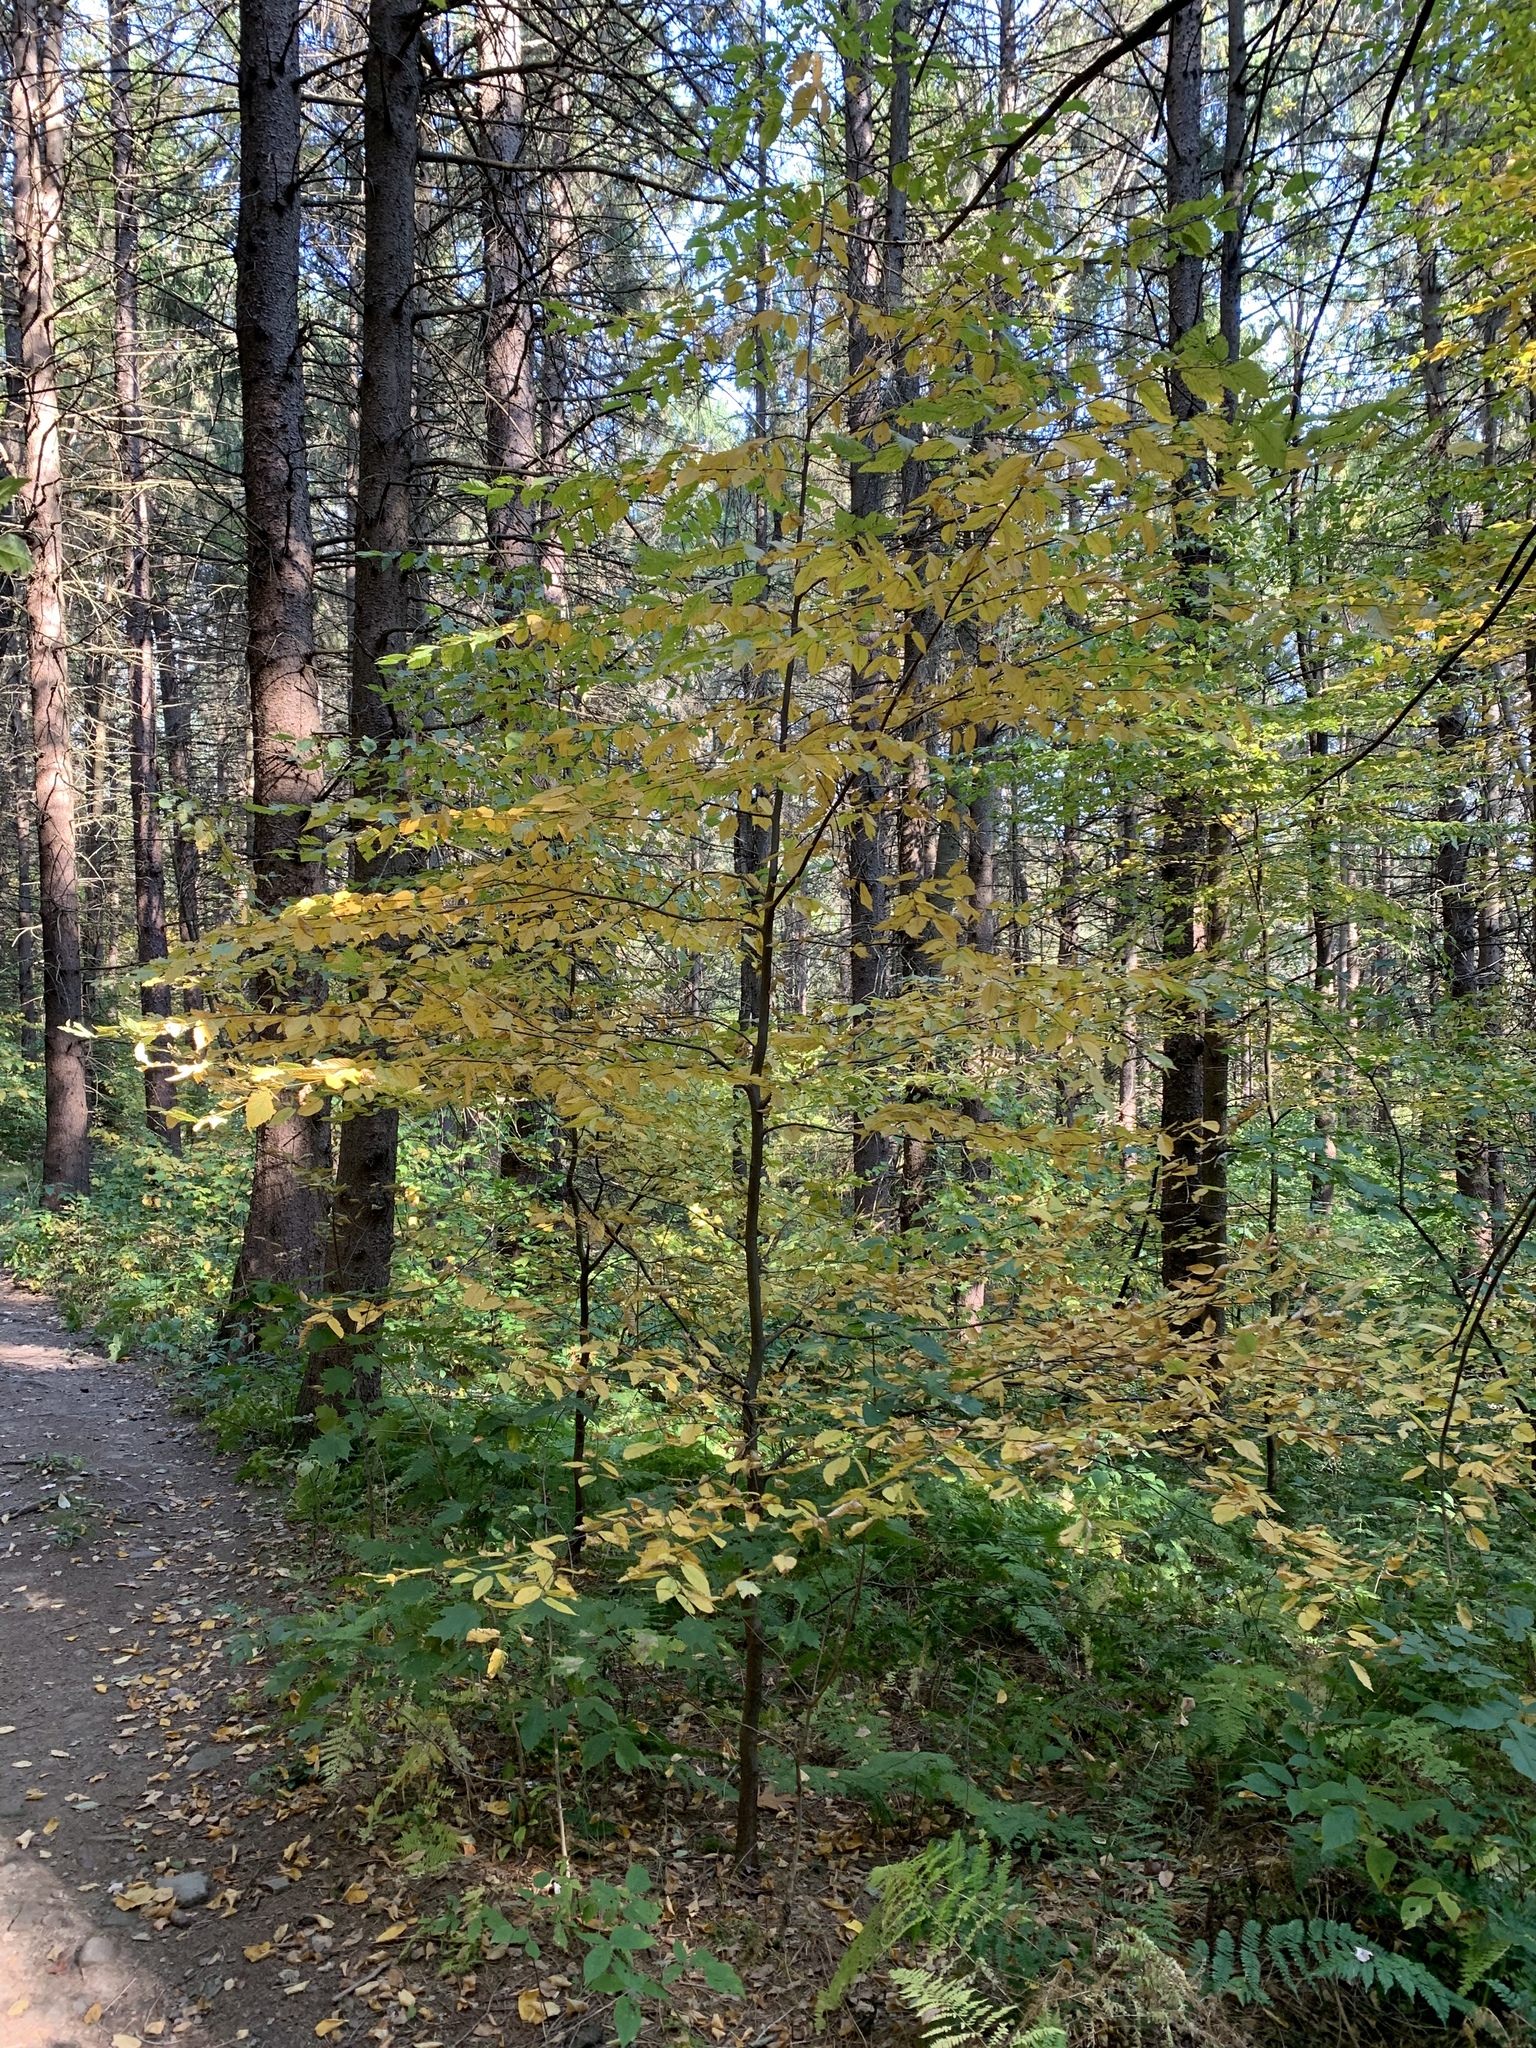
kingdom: Plantae
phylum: Tracheophyta
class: Magnoliopsida
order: Fagales
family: Betulaceae
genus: Betula
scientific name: Betula alleghaniensis
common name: Yellow birch
